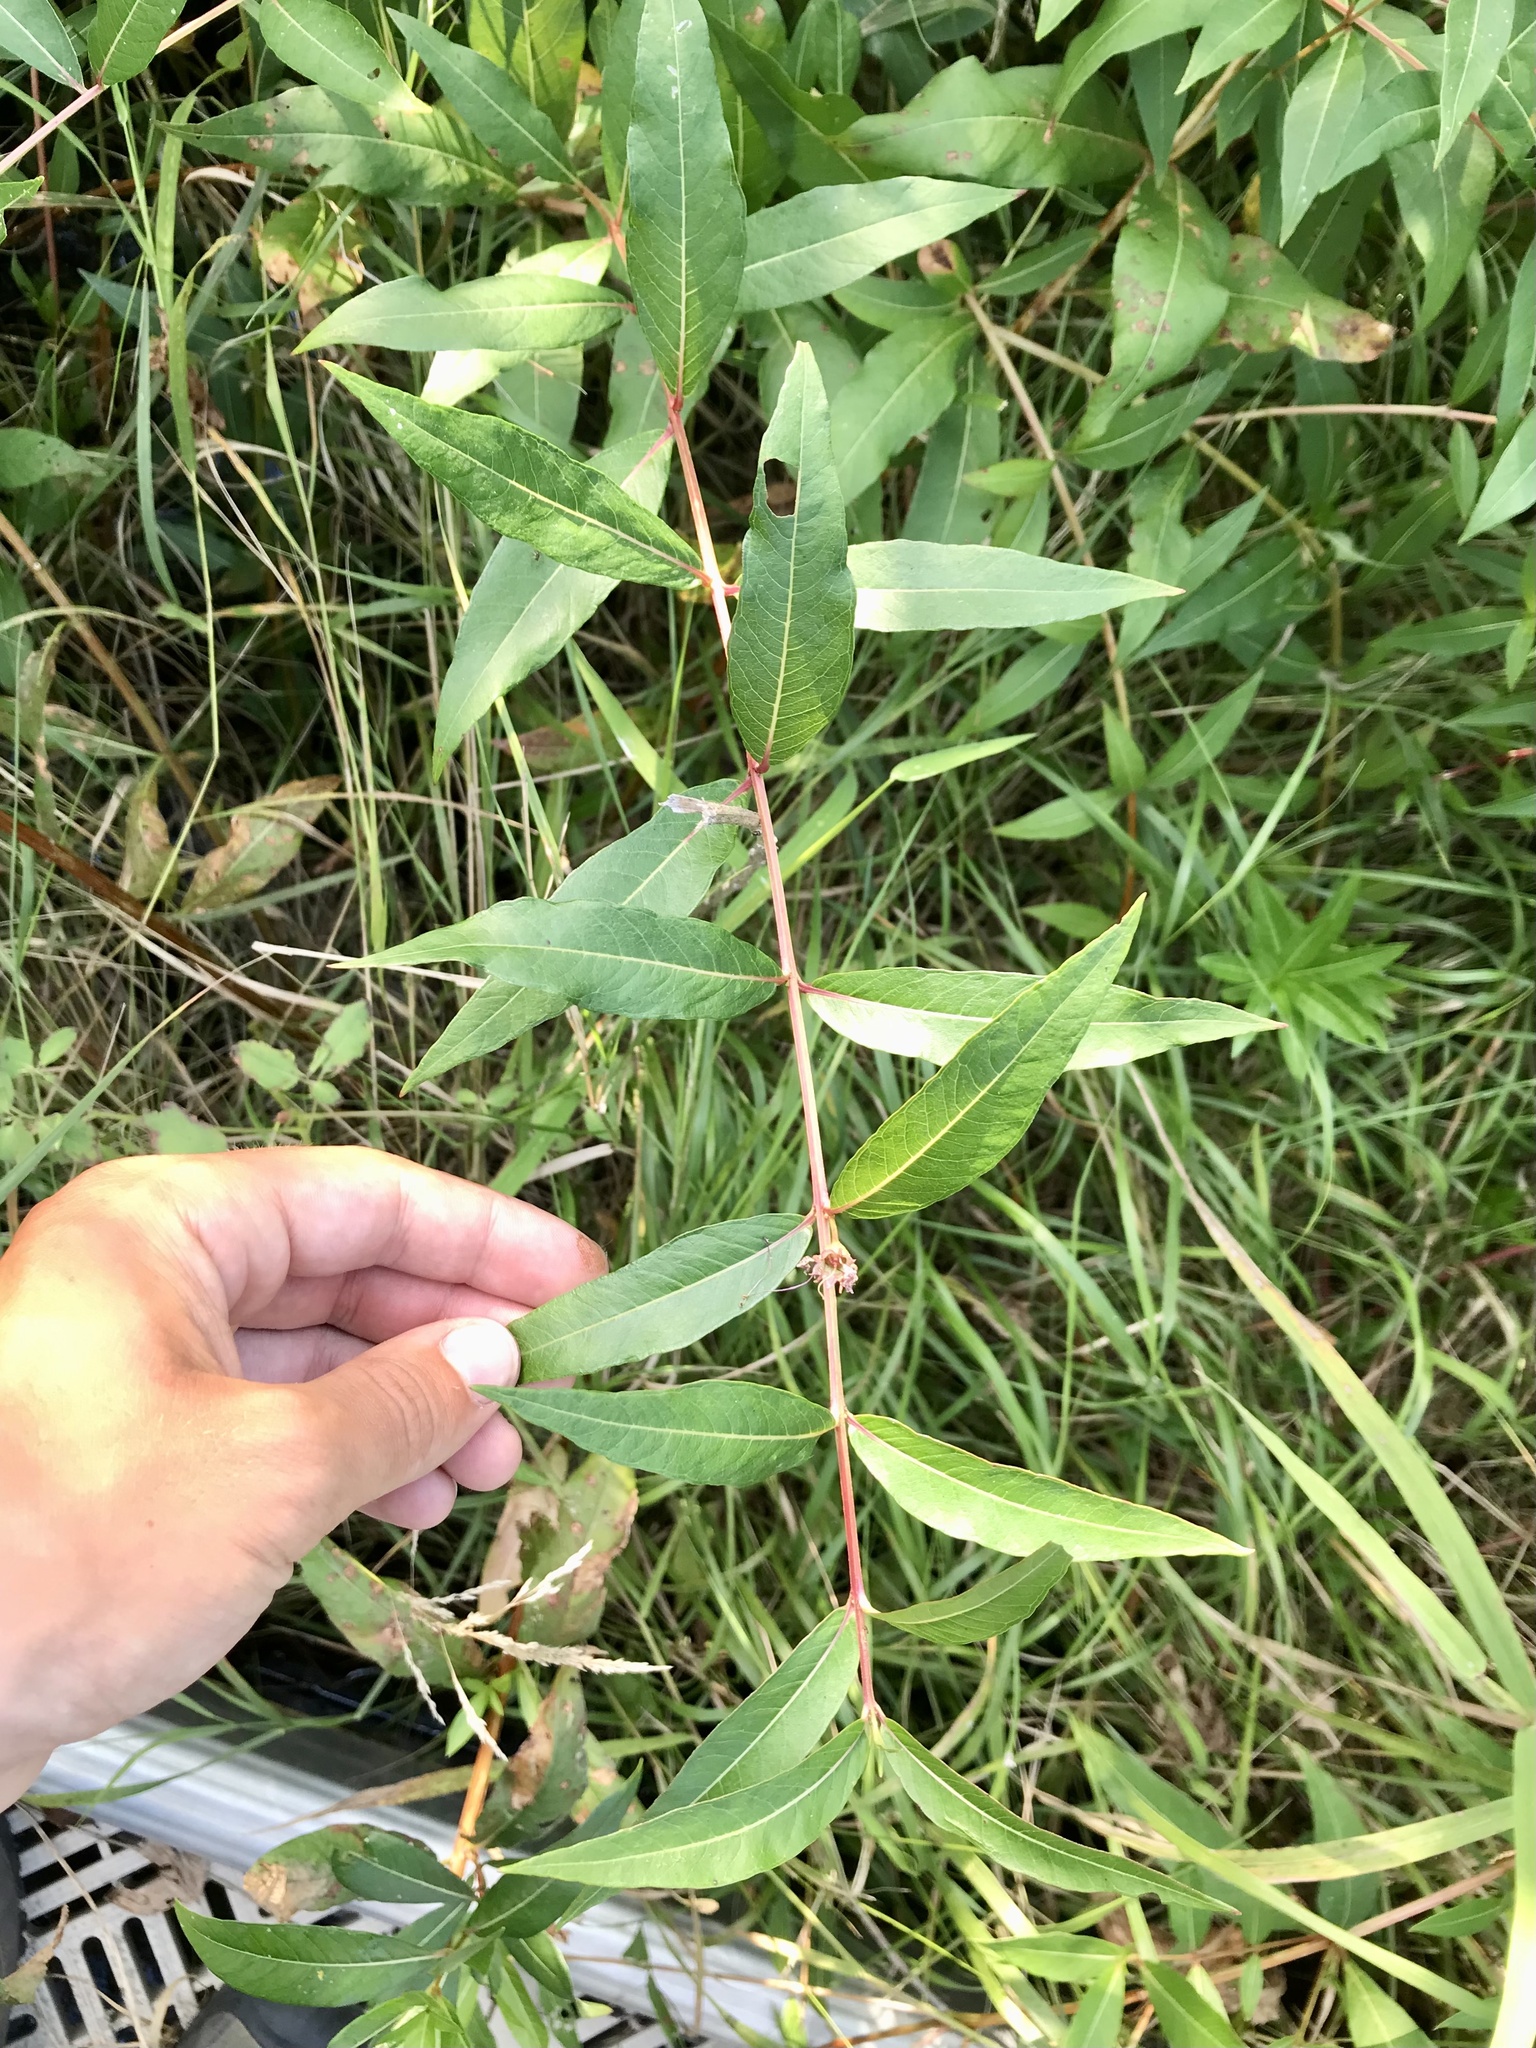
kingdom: Plantae
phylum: Tracheophyta
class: Magnoliopsida
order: Myrtales
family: Lythraceae
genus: Decodon
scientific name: Decodon verticillatus
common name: Hairy swamp loosestrife
